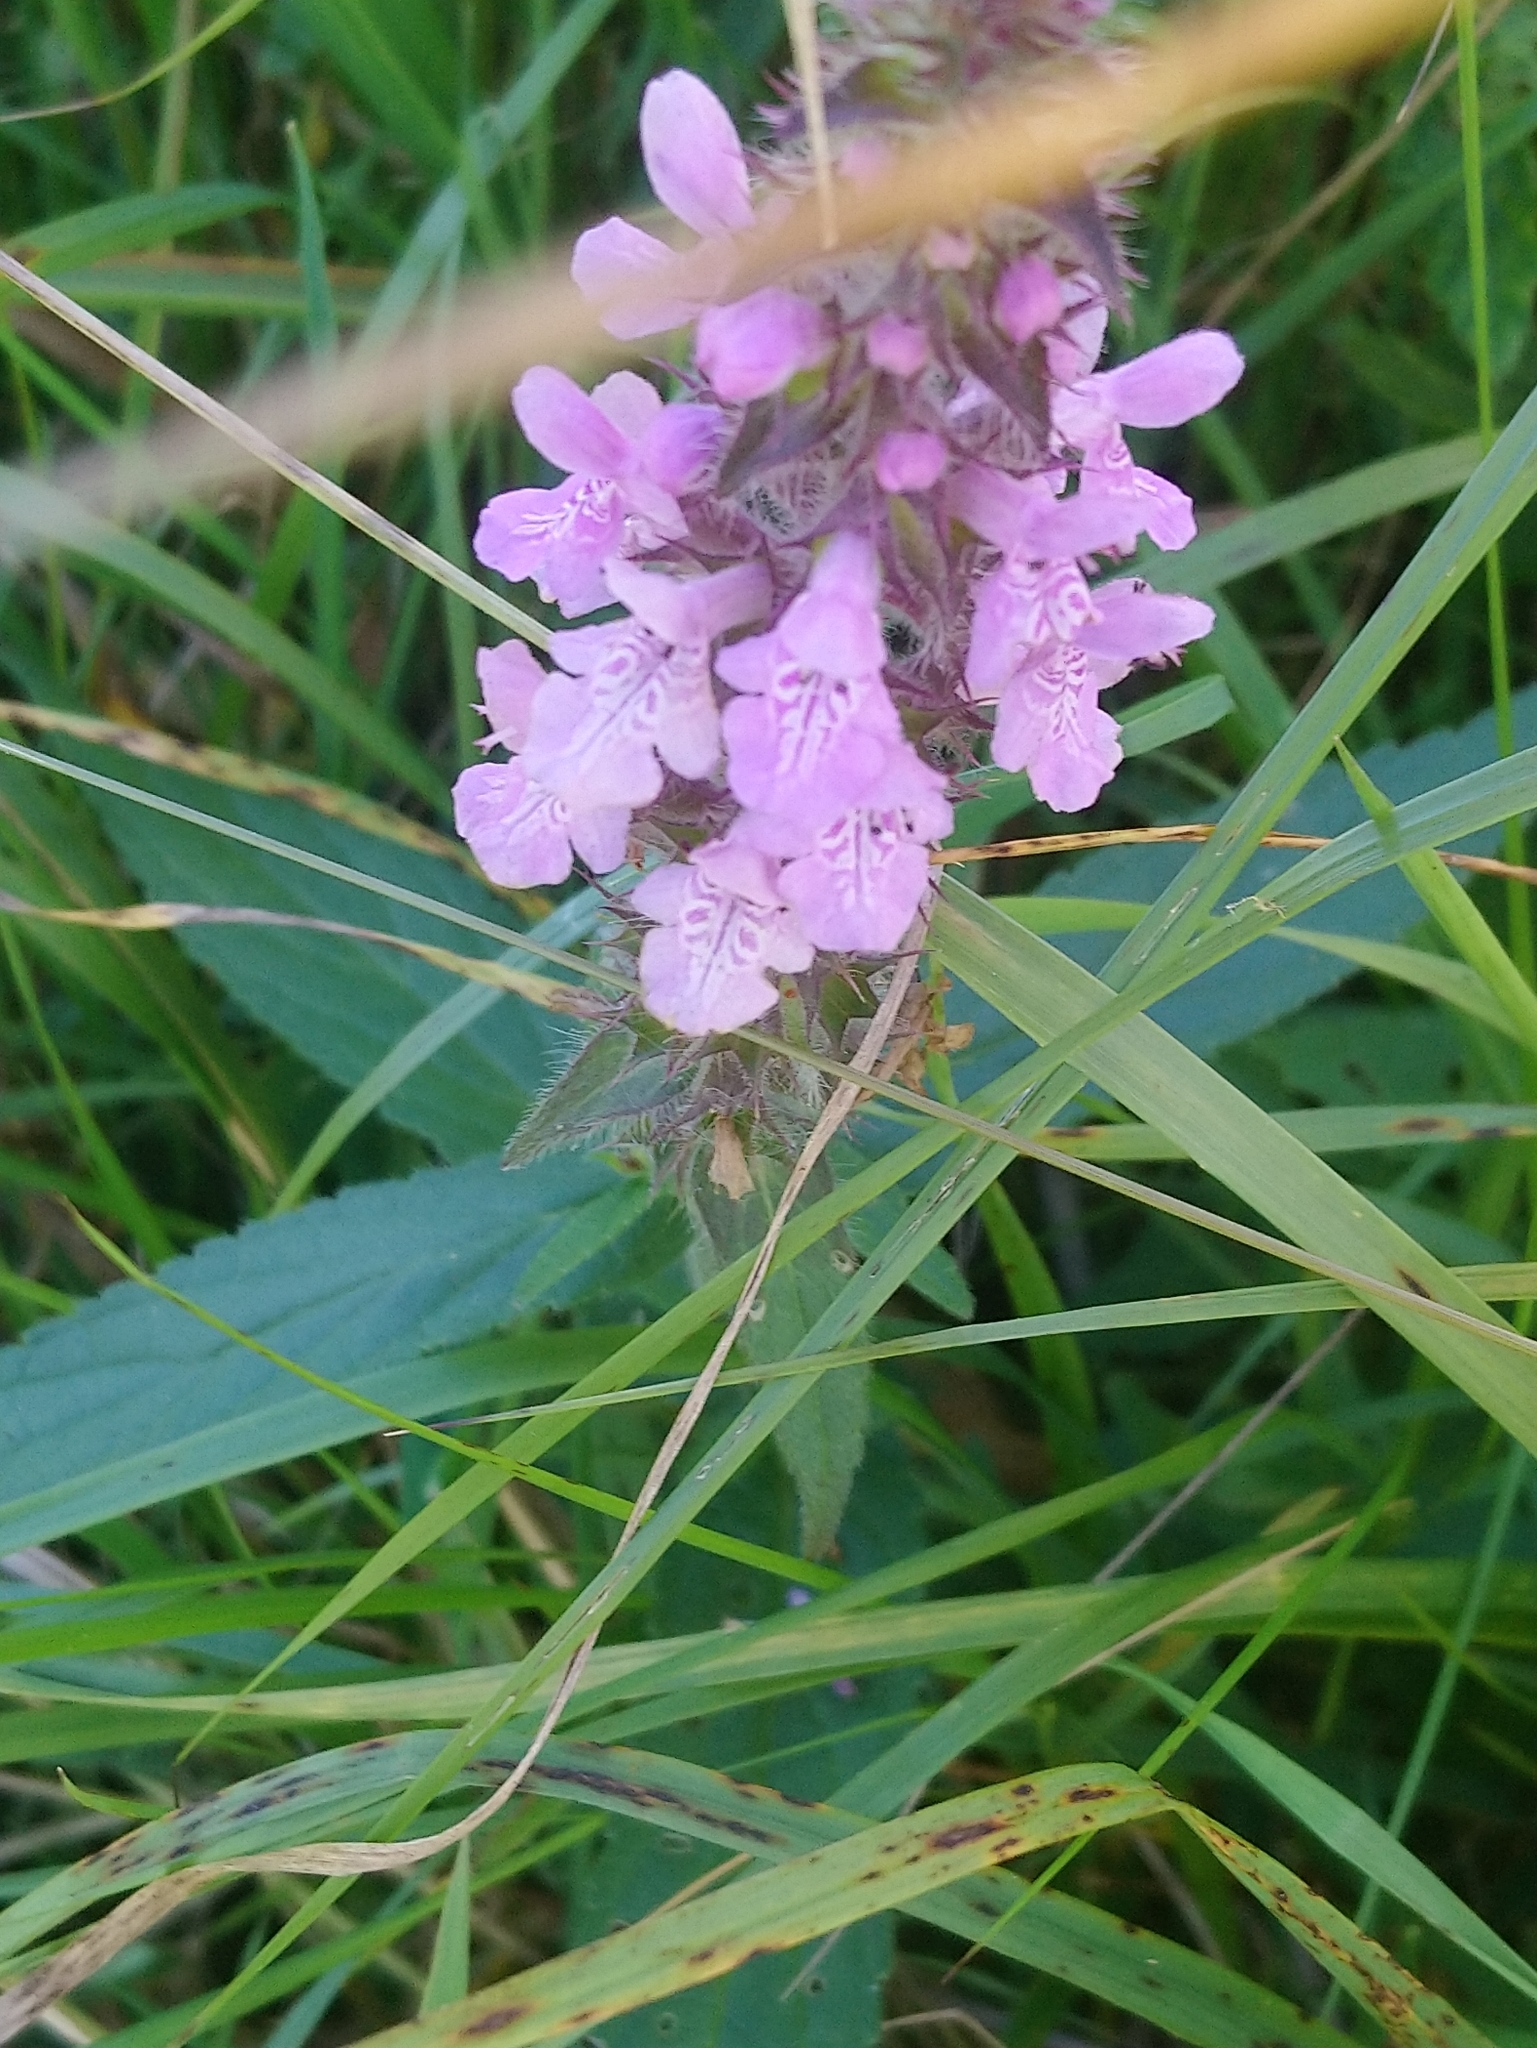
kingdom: Plantae
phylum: Tracheophyta
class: Magnoliopsida
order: Lamiales
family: Lamiaceae
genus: Stachys
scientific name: Stachys palustris
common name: Marsh woundwort
